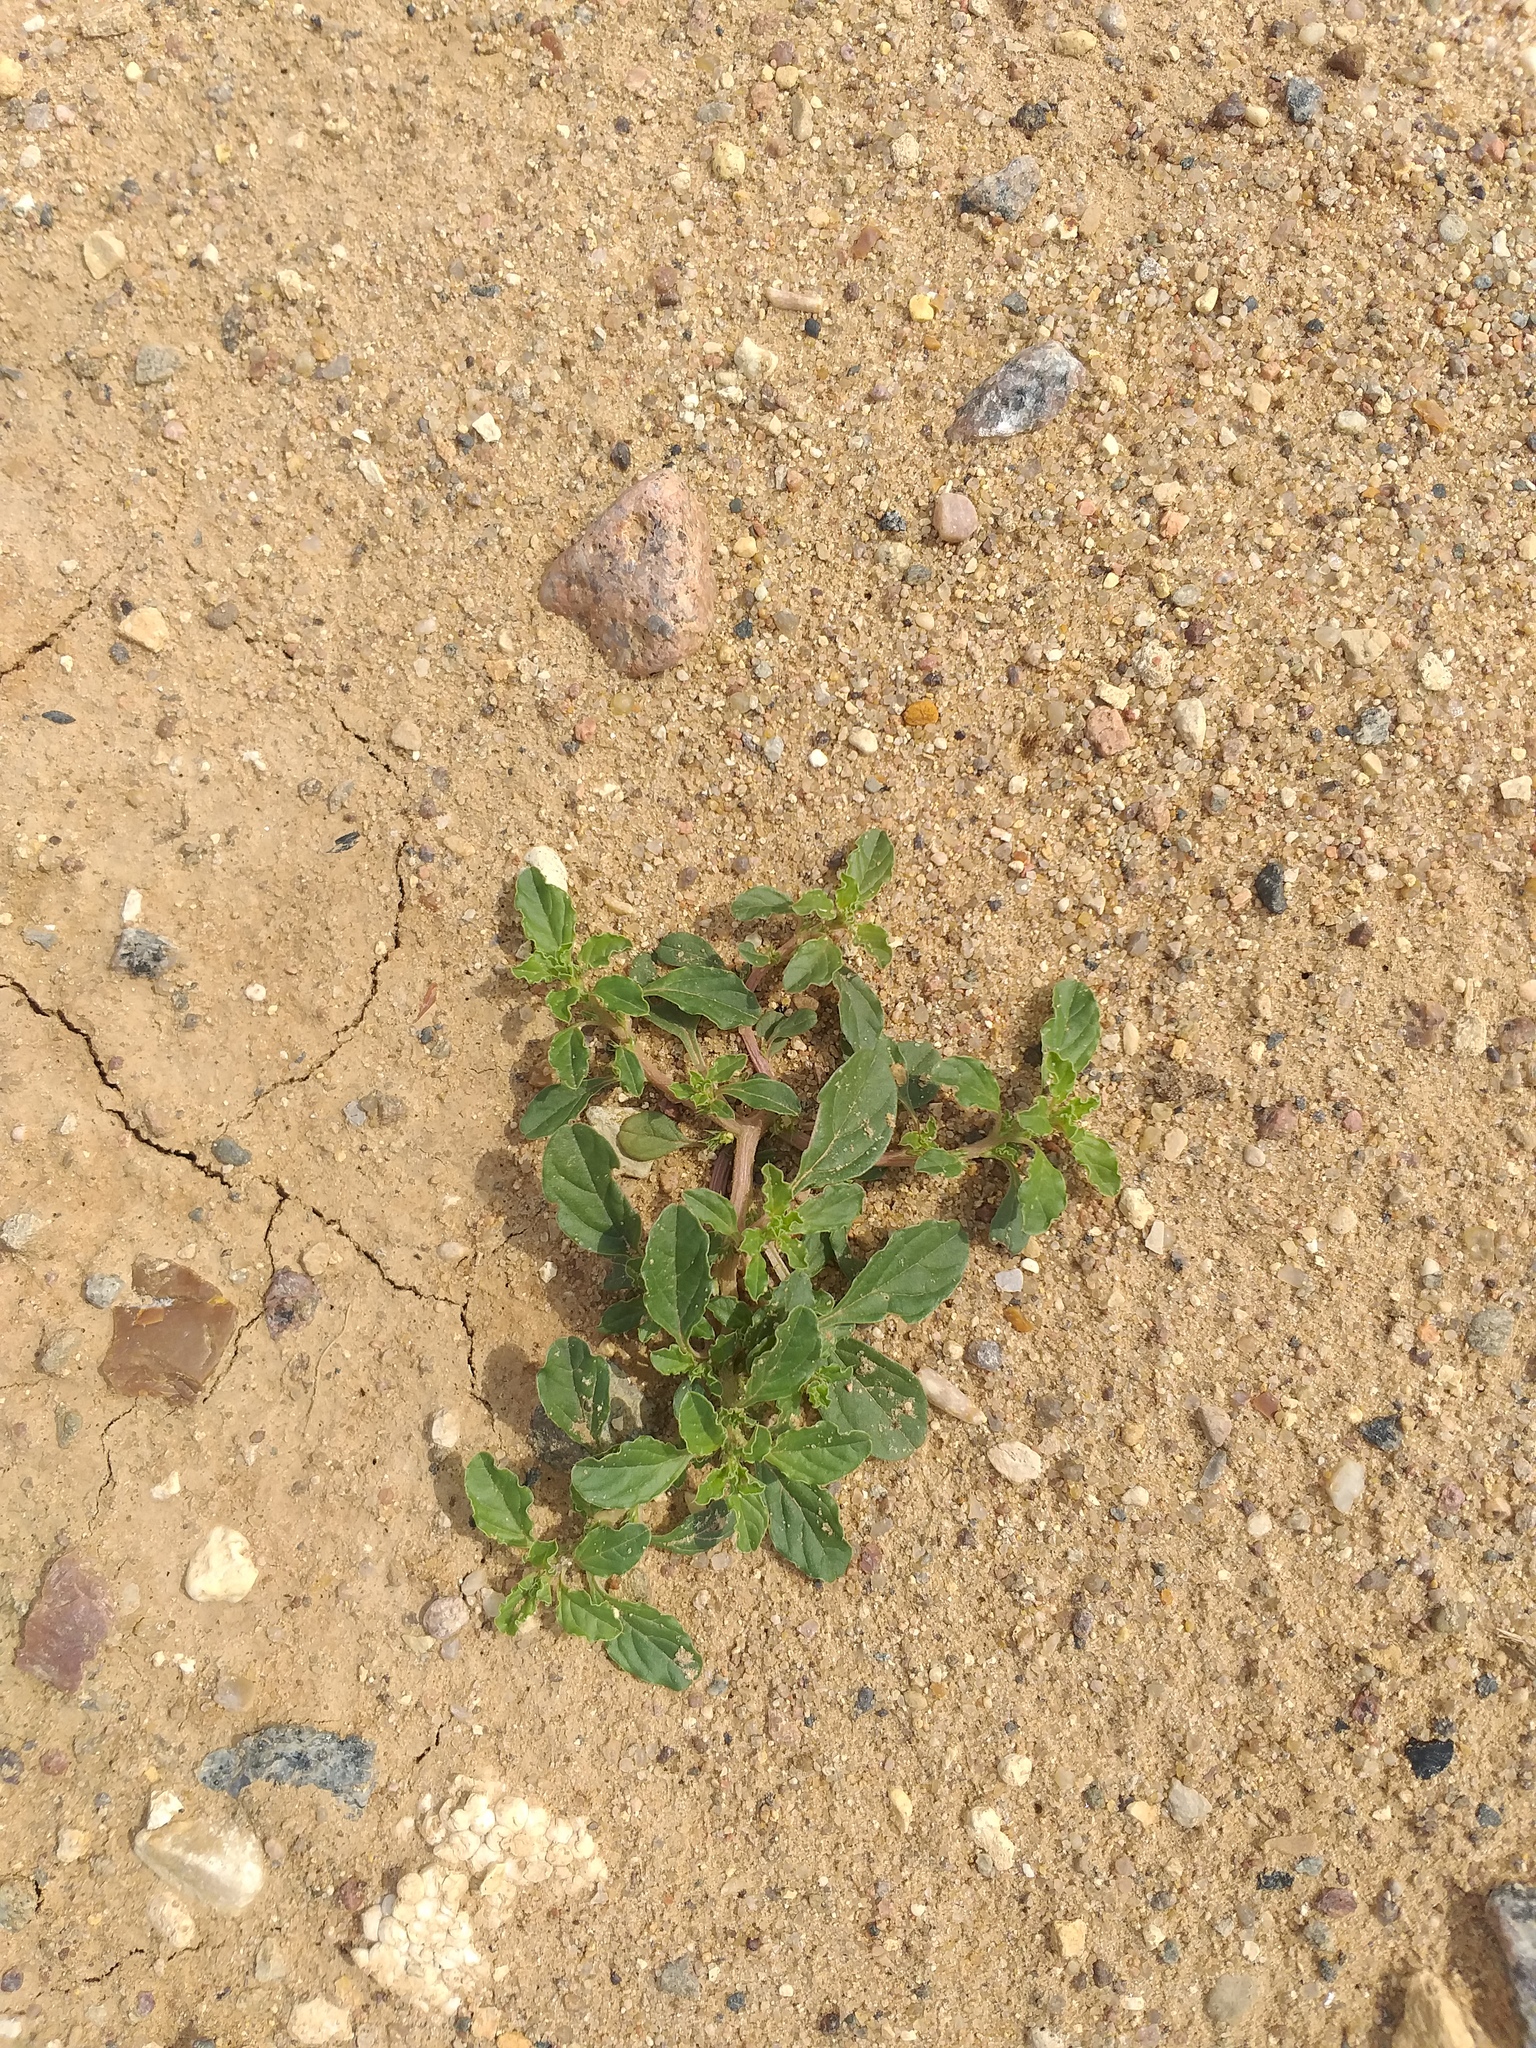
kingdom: Plantae
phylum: Tracheophyta
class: Magnoliopsida
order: Caryophyllales
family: Amaranthaceae
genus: Amaranthus
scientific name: Amaranthus albus
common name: White pigweed
